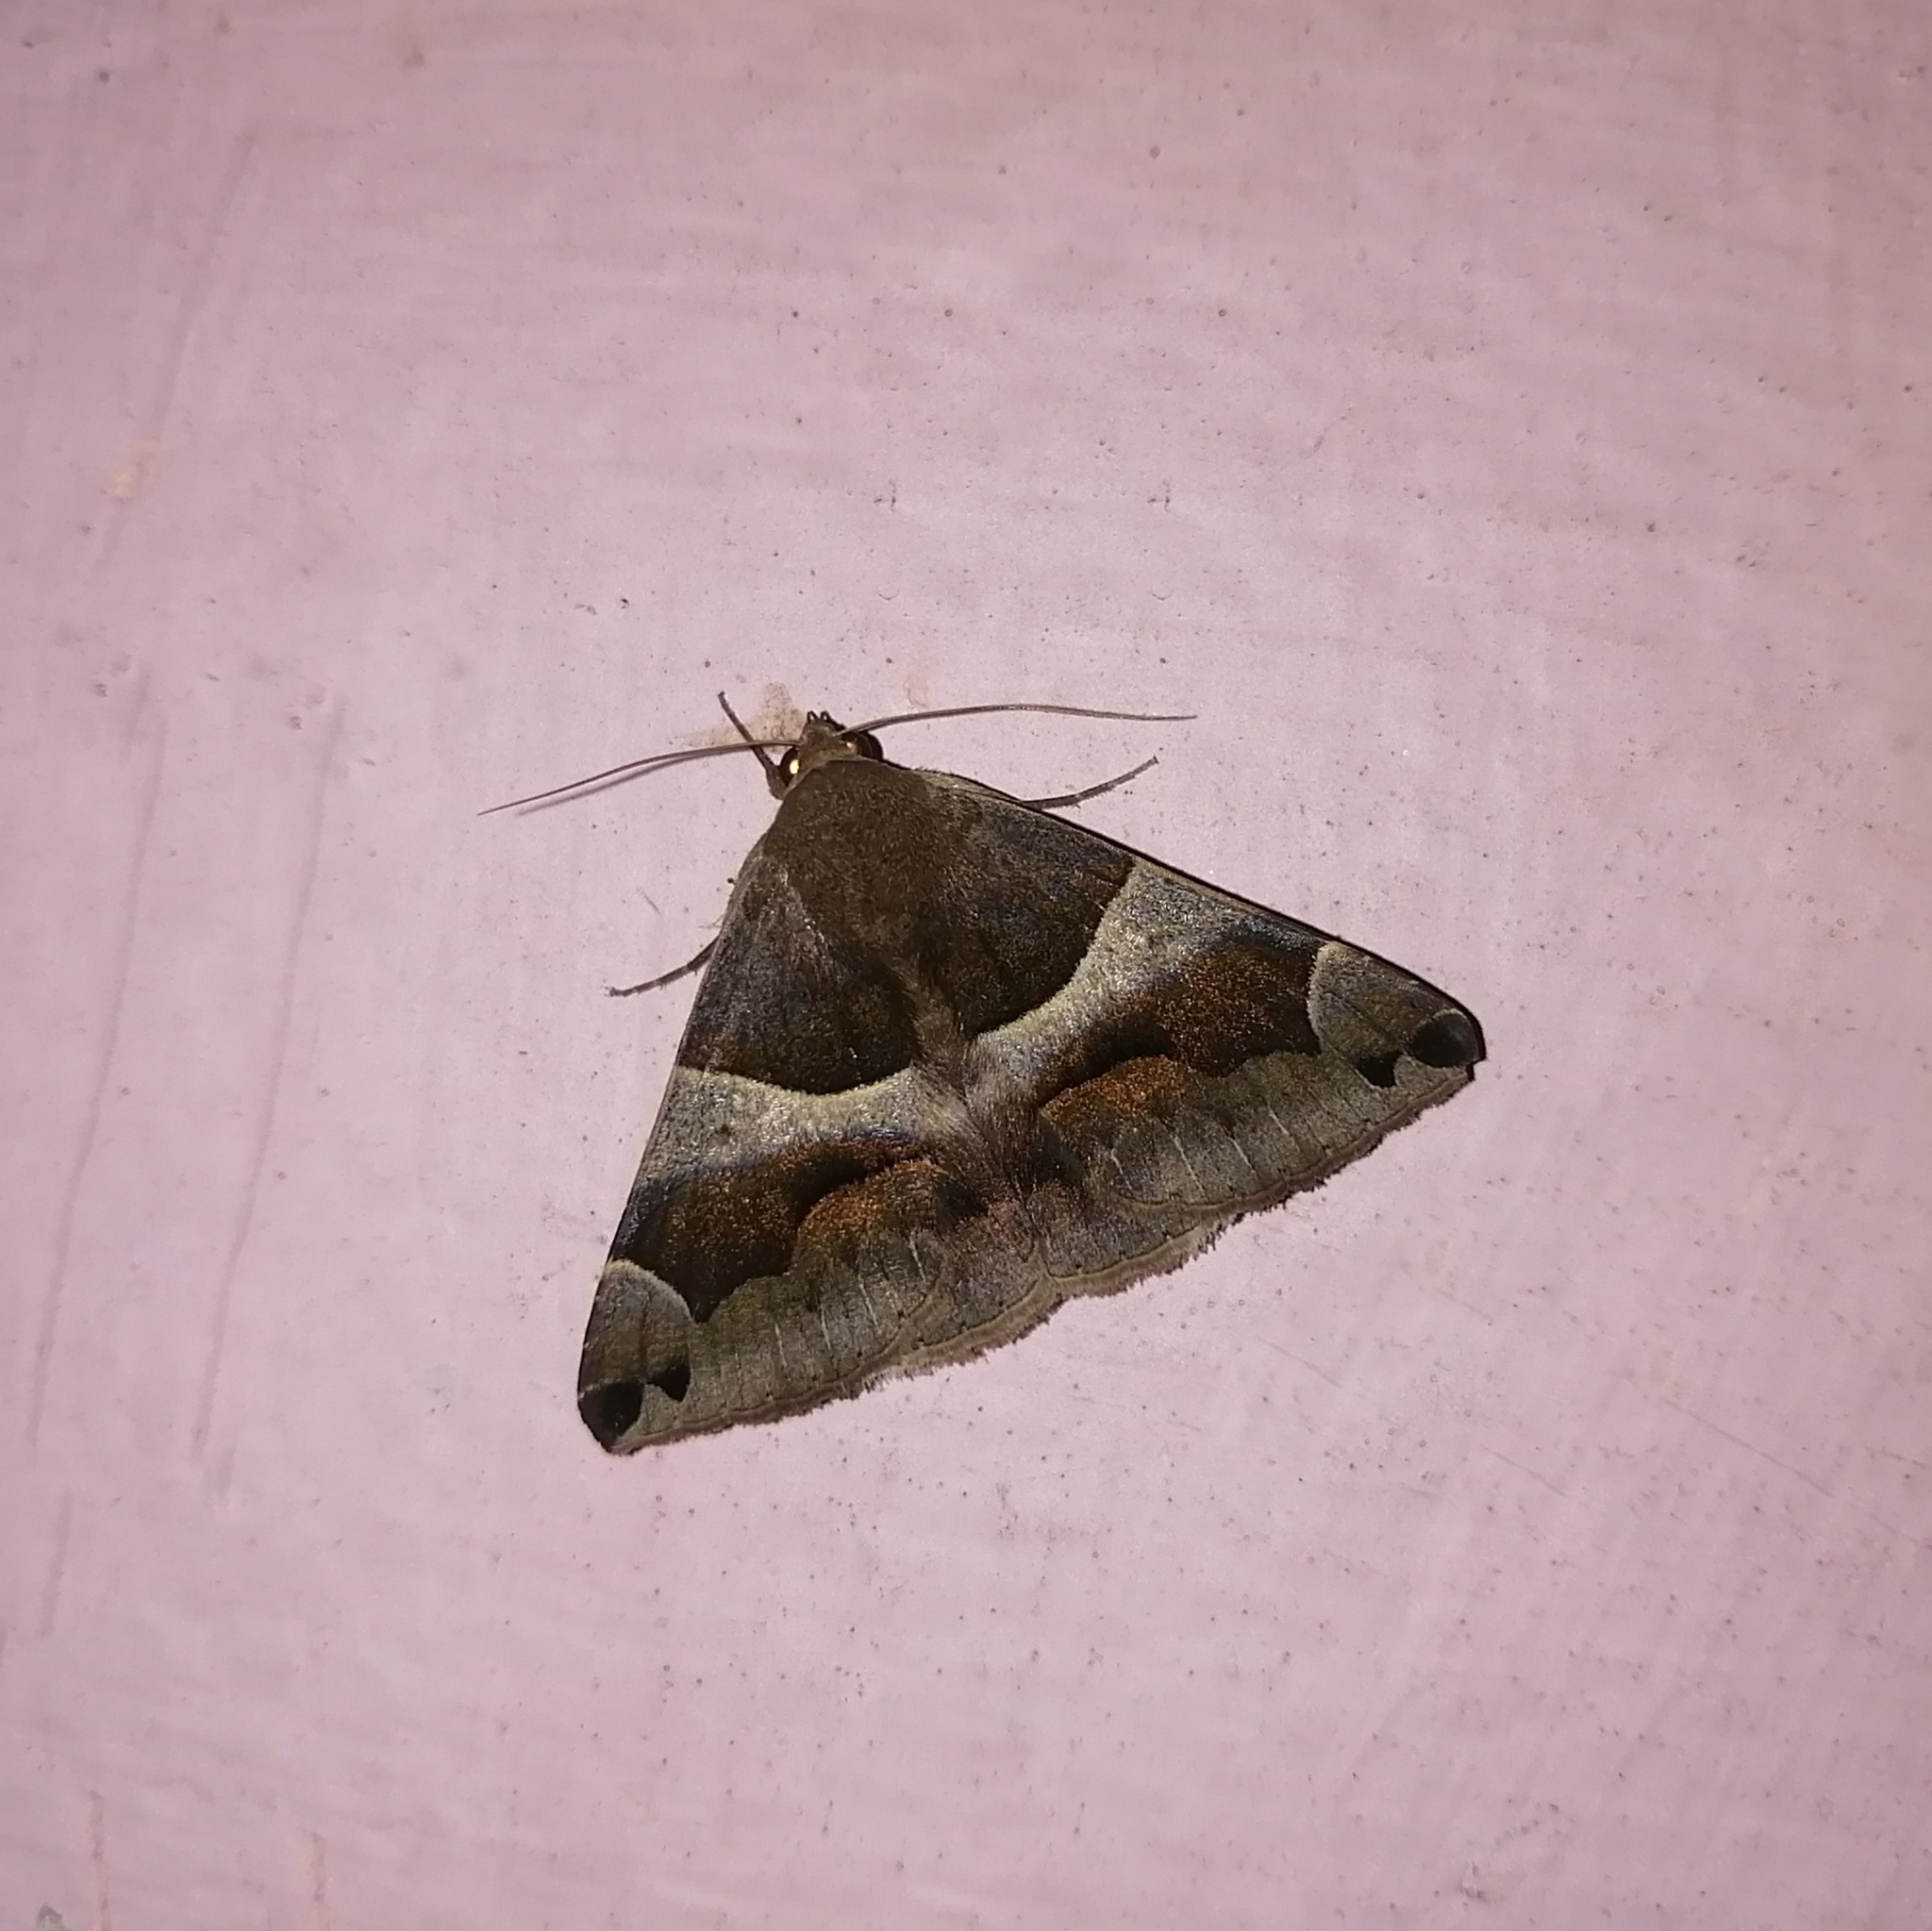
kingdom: Animalia
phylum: Arthropoda
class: Insecta
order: Lepidoptera
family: Erebidae
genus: Dysgonia
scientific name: Dysgonia stuposa
